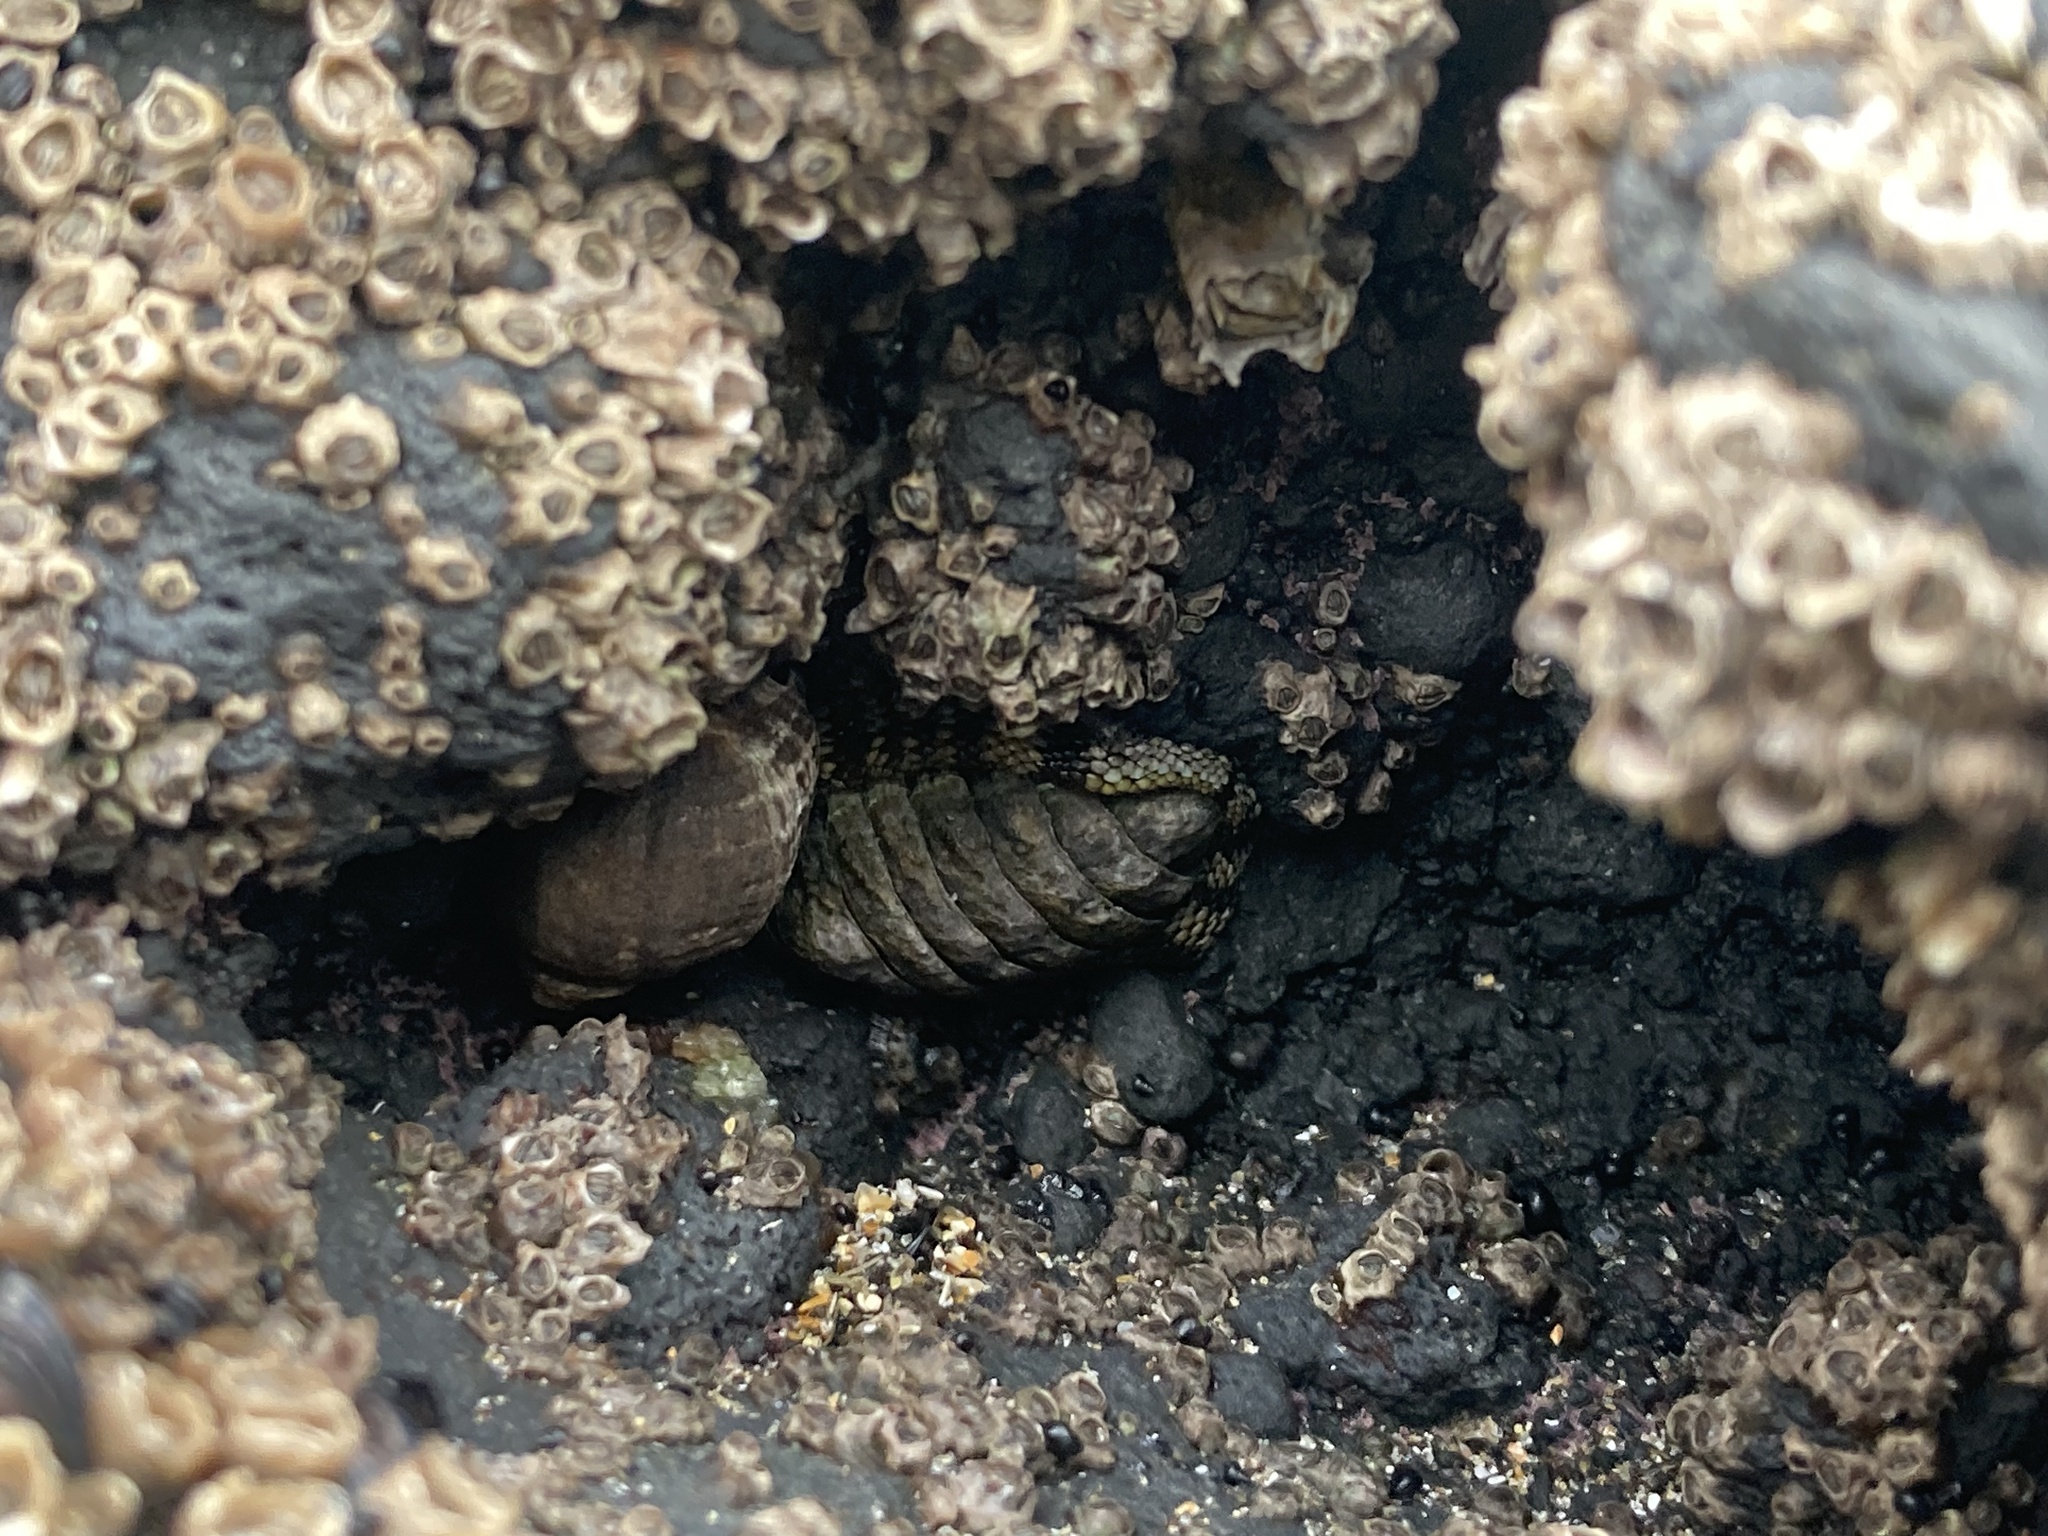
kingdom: Animalia
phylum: Mollusca
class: Polyplacophora
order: Chitonida
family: Chitonidae
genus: Sypharochiton
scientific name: Sypharochiton pelliserpentis
